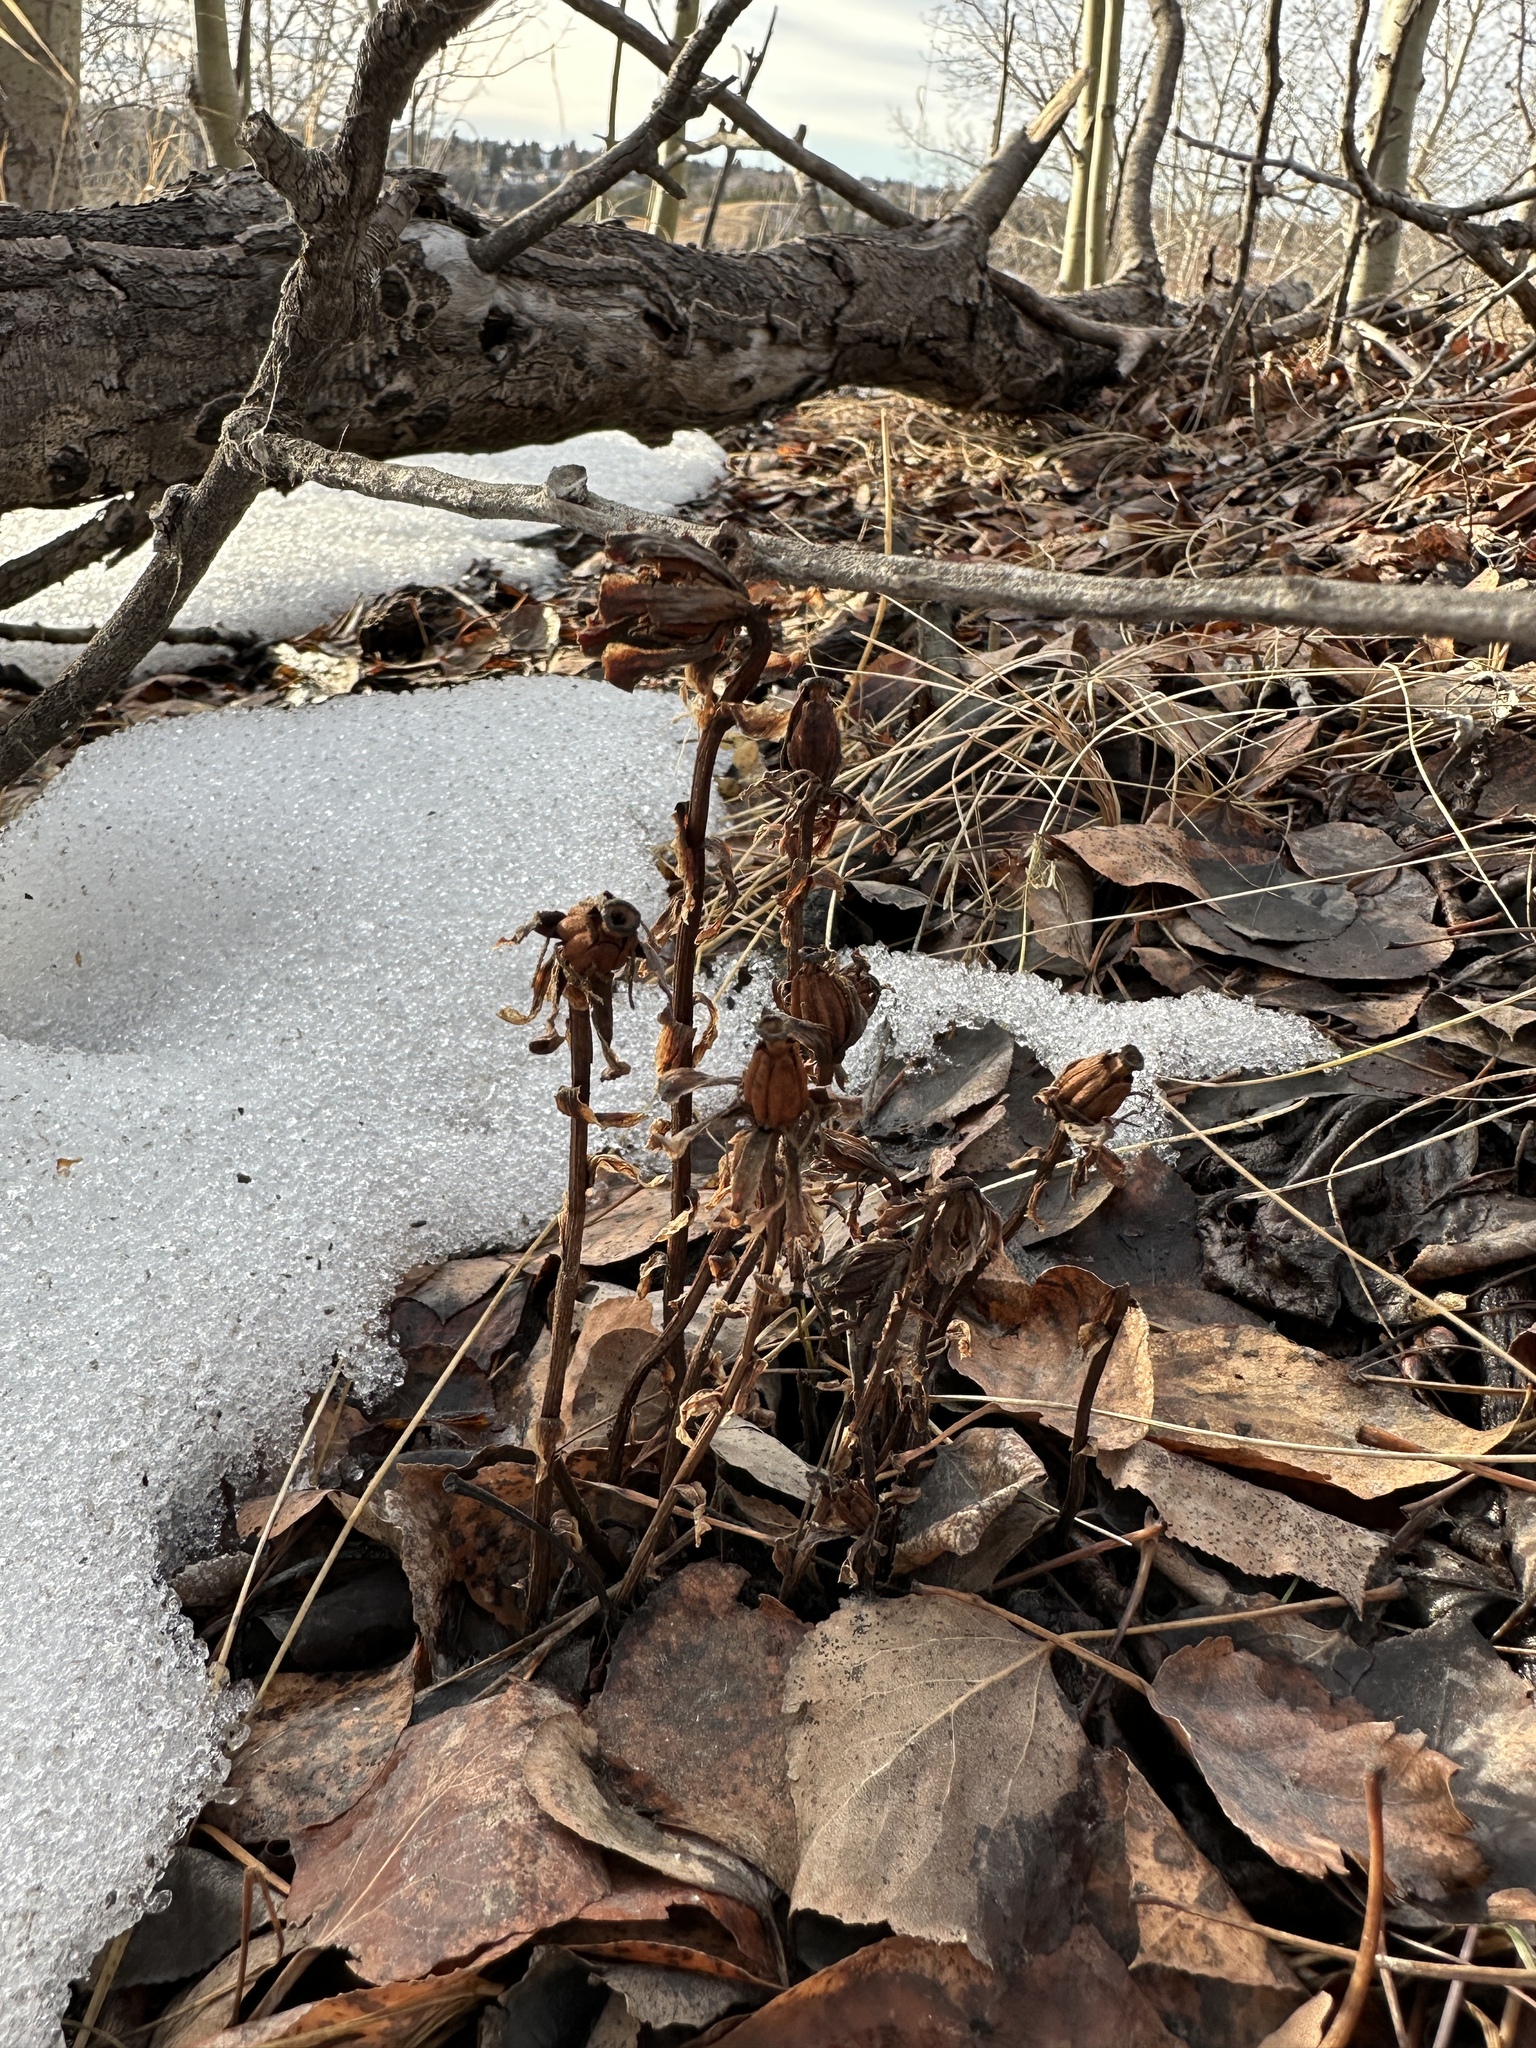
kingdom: Plantae
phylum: Tracheophyta
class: Magnoliopsida
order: Ericales
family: Ericaceae
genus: Monotropa
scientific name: Monotropa uniflora
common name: Convulsion root
